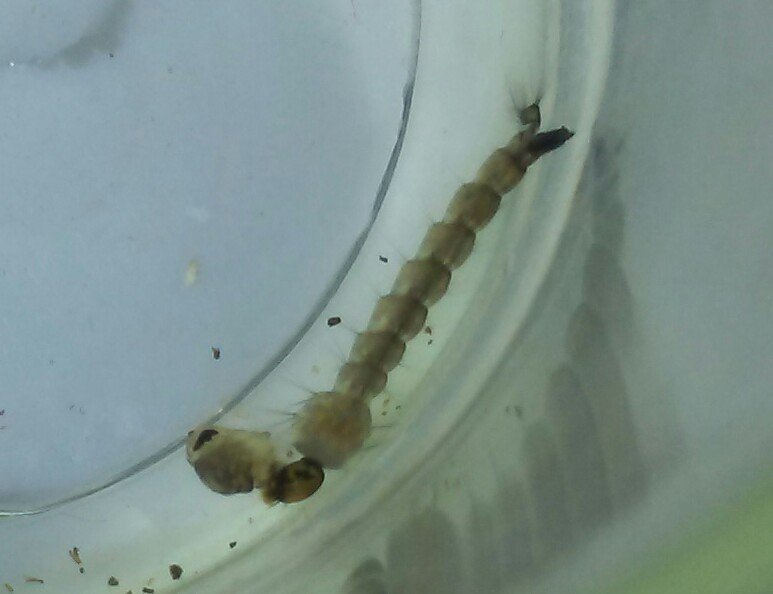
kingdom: Animalia
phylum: Arthropoda
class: Insecta
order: Diptera
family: Culicidae
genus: Aedes
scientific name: Aedes triseriatus
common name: Eastern treehole mosquito
